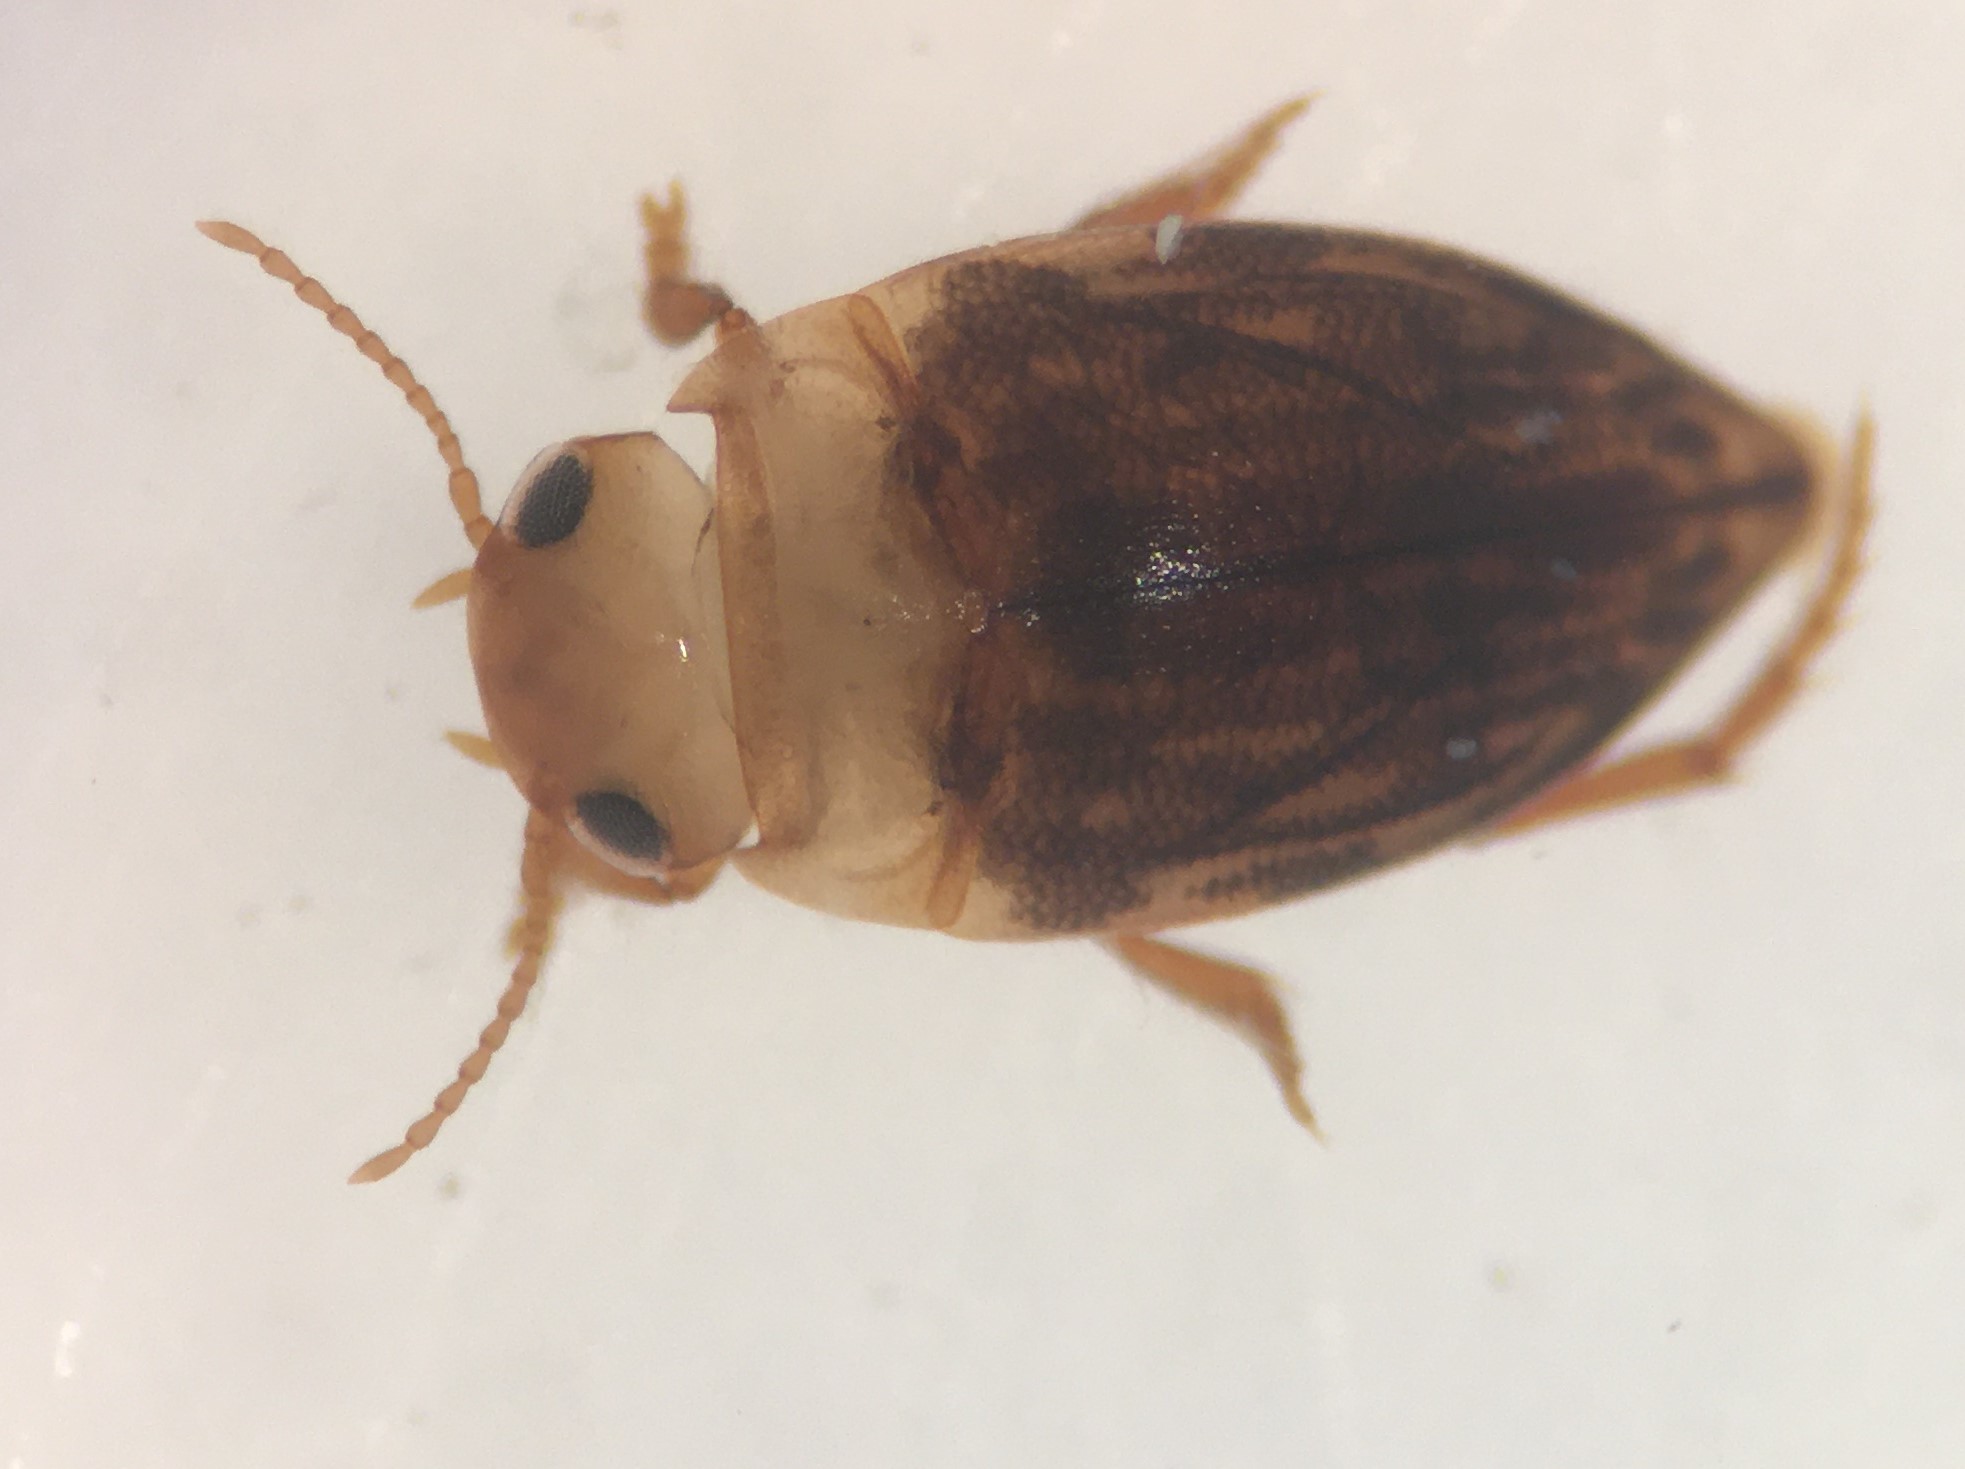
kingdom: Animalia
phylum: Arthropoda
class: Insecta
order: Coleoptera
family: Dytiscidae
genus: Neoporus
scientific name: Neoporus mellitus
